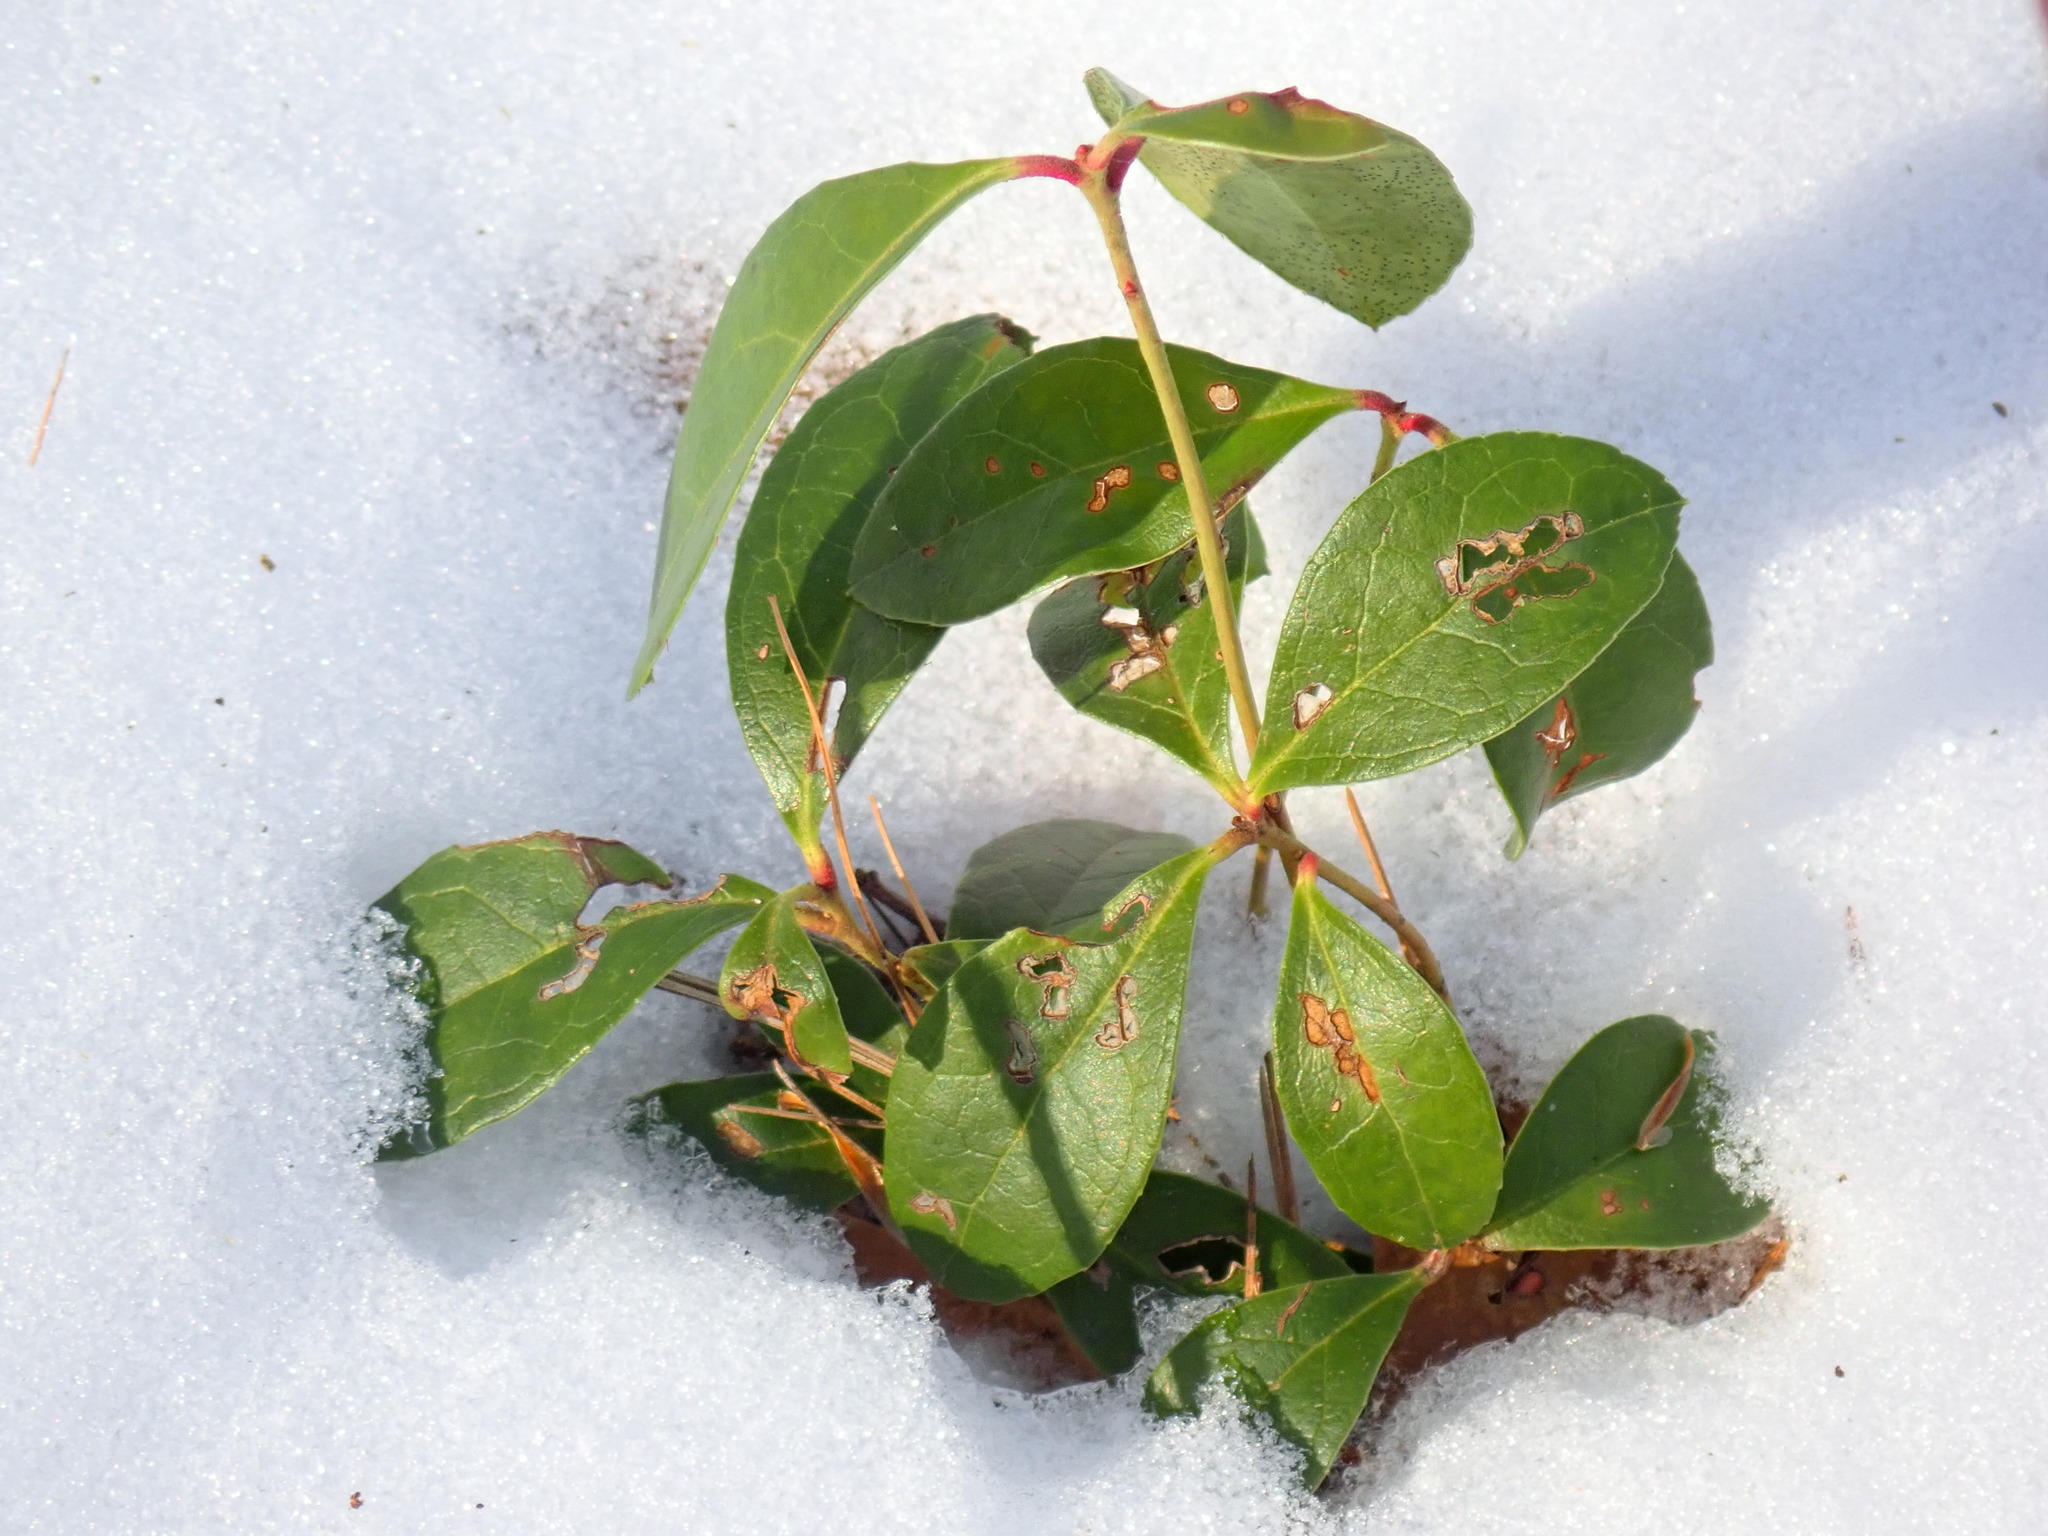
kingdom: Plantae
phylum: Tracheophyta
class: Magnoliopsida
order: Ericales
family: Ericaceae
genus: Gaultheria
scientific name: Gaultheria procumbens
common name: Checkerberry
